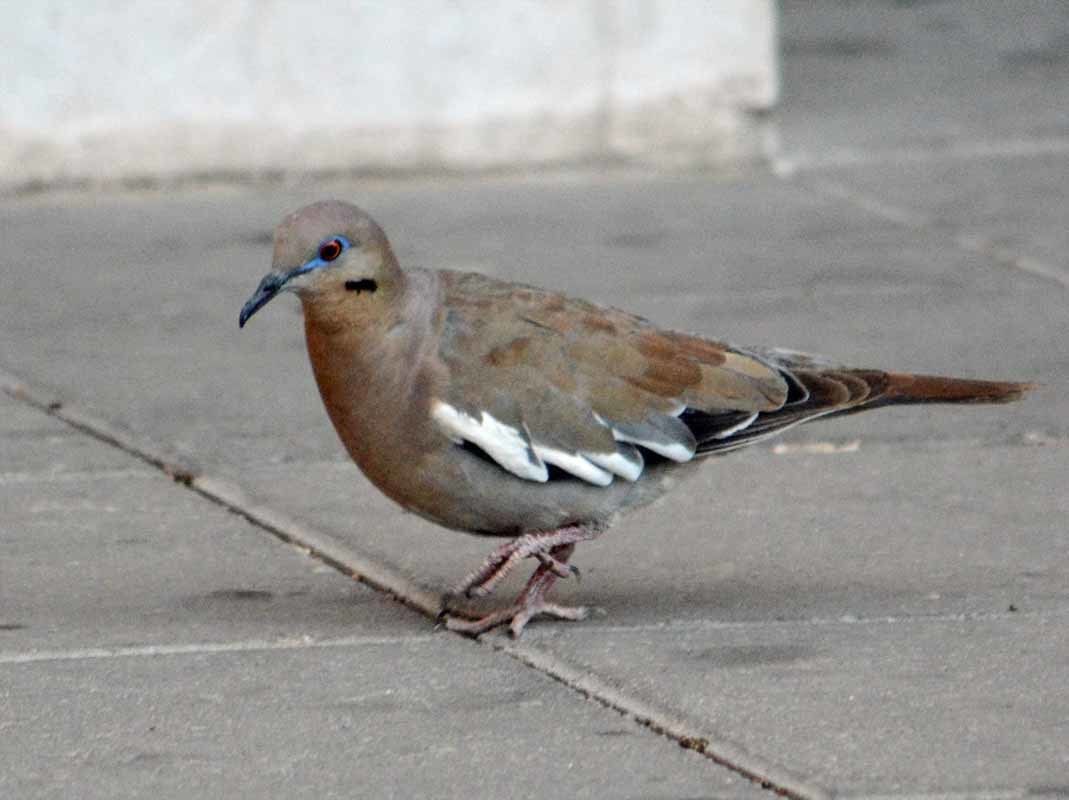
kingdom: Animalia
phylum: Chordata
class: Aves
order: Columbiformes
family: Columbidae
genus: Zenaida
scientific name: Zenaida asiatica
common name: White-winged dove
